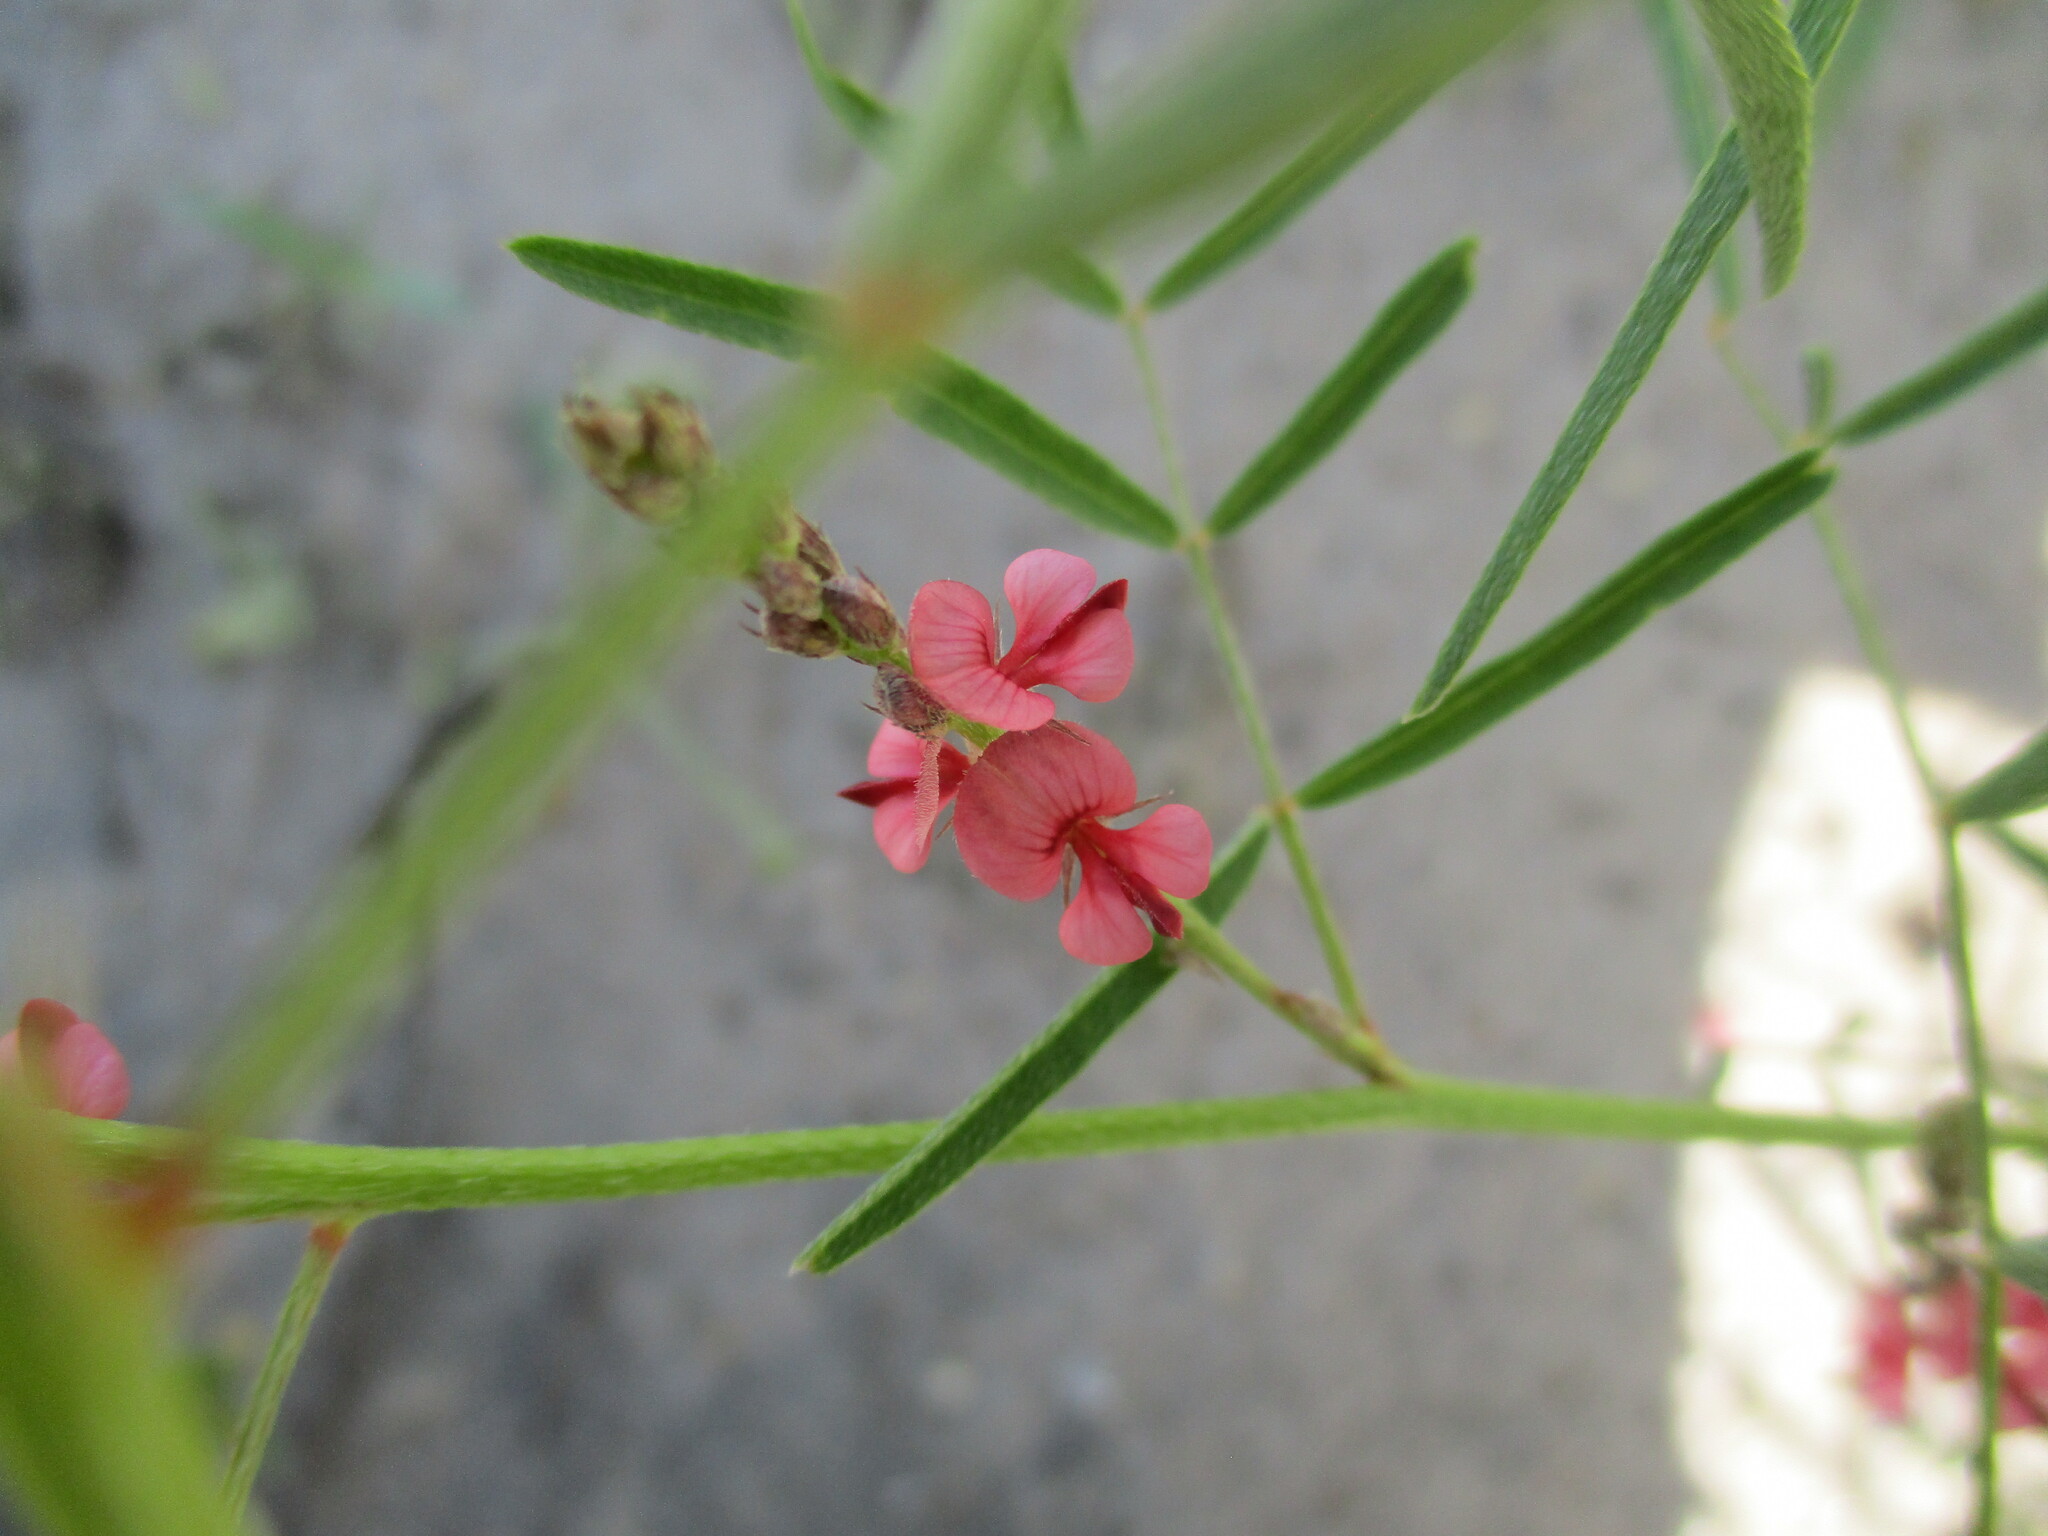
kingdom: Plantae
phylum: Tracheophyta
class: Magnoliopsida
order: Fabales
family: Fabaceae
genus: Indigofera
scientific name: Indigofera charlieriana
